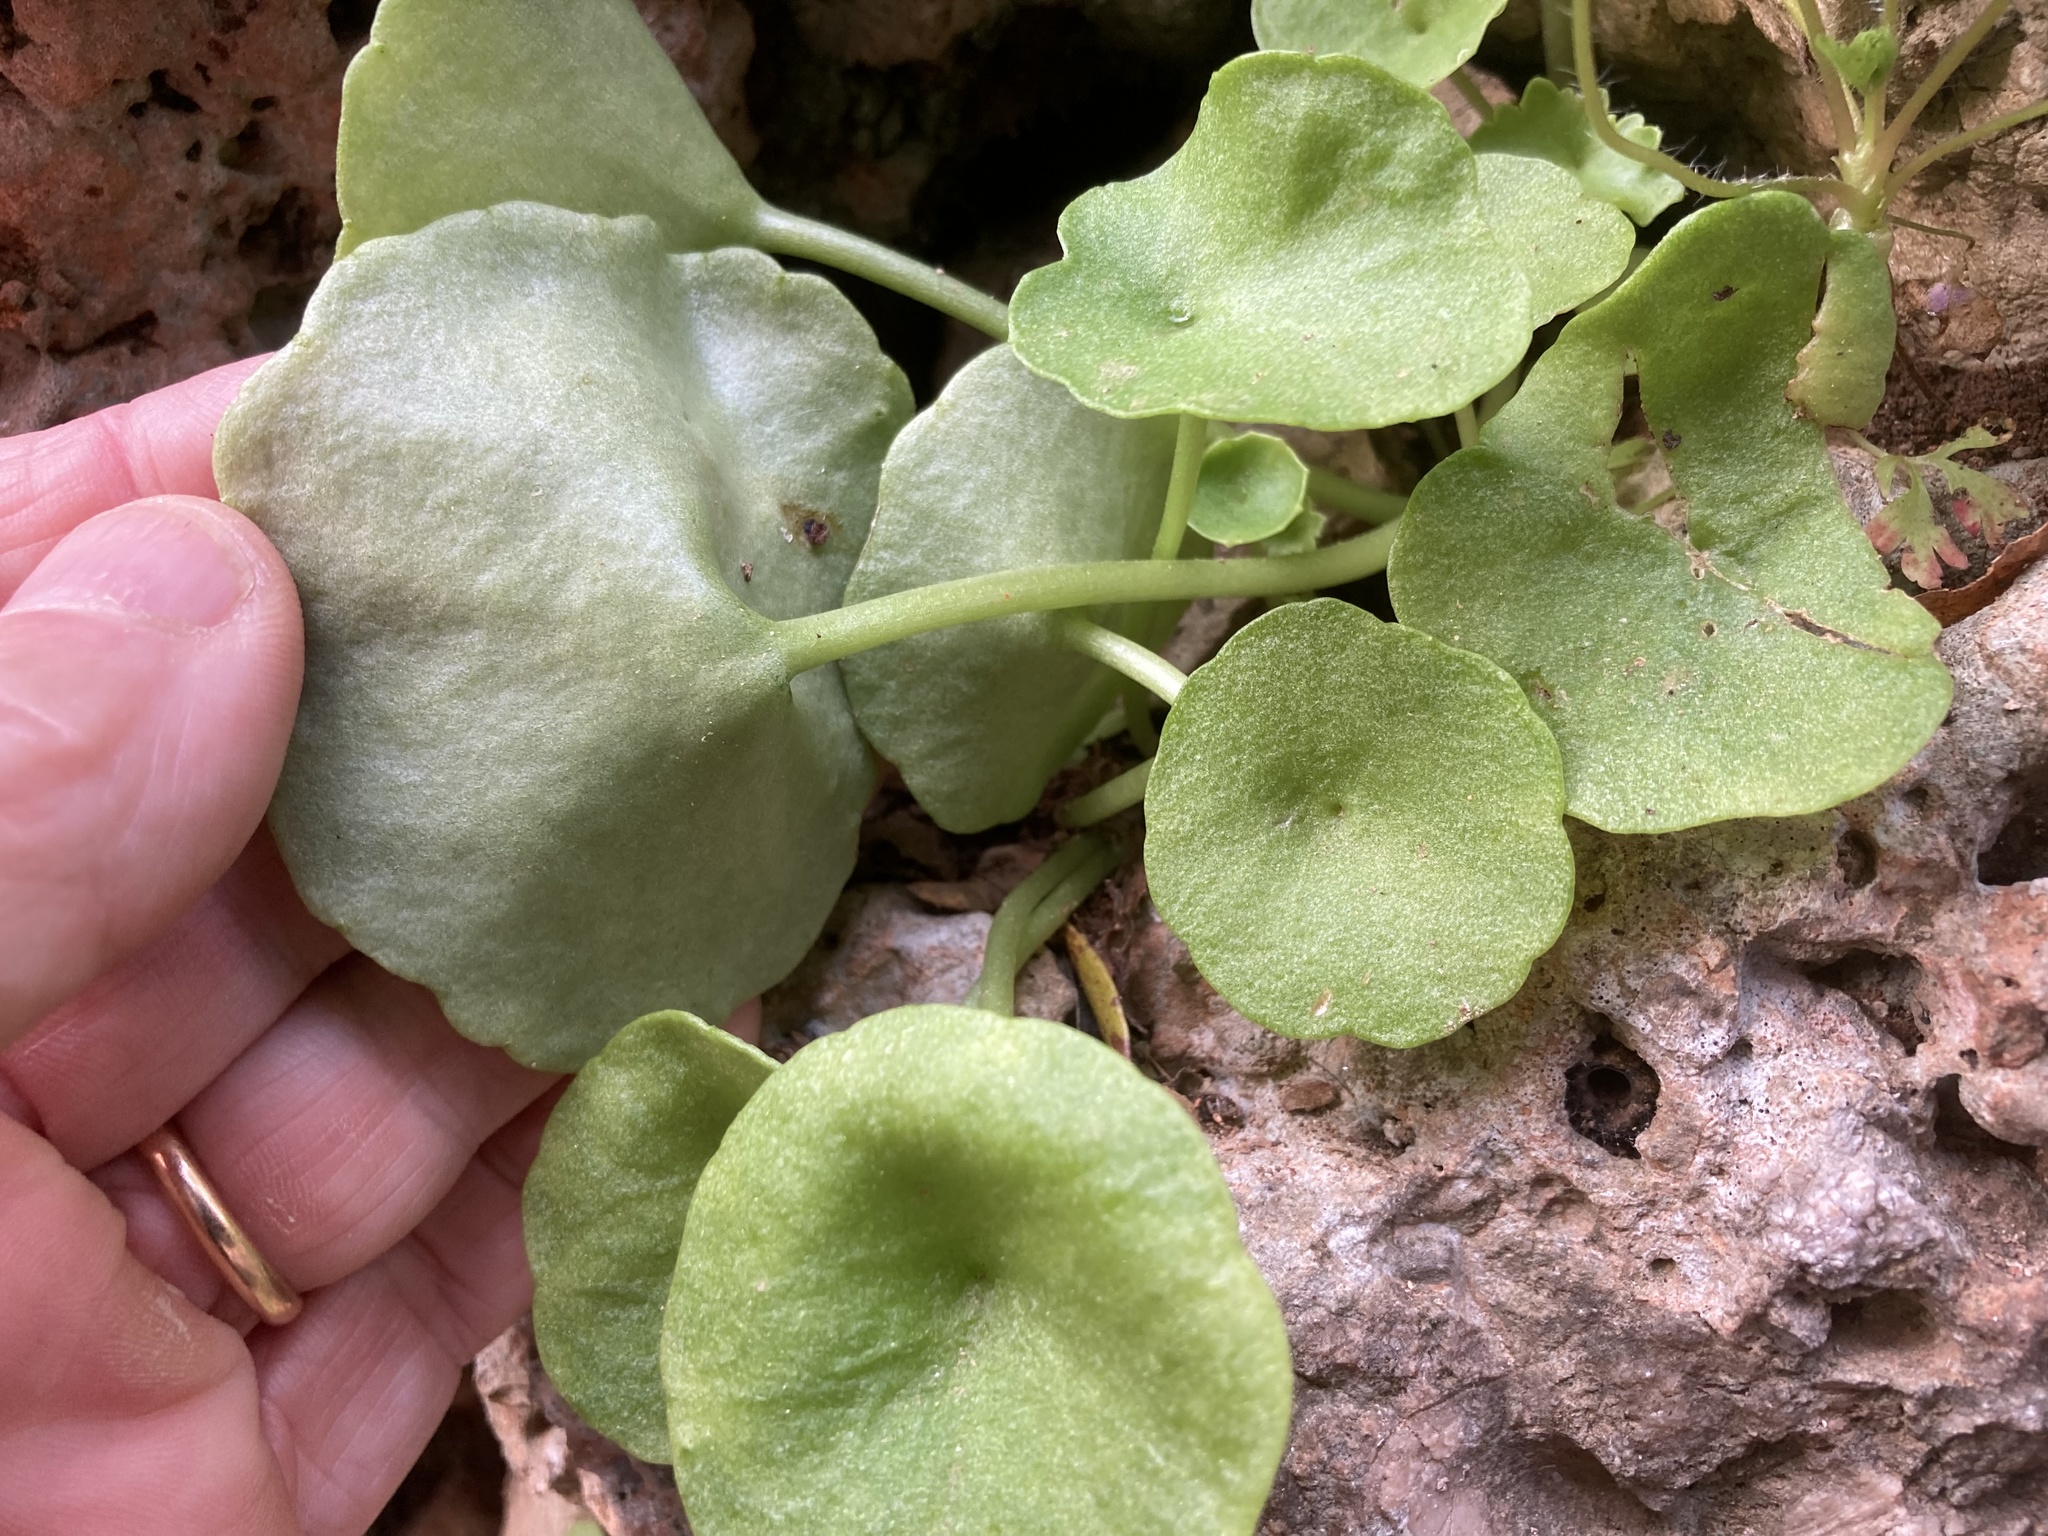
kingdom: Plantae
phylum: Tracheophyta
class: Magnoliopsida
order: Saxifragales
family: Crassulaceae
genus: Umbilicus
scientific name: Umbilicus rupestris
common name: Navelwort
